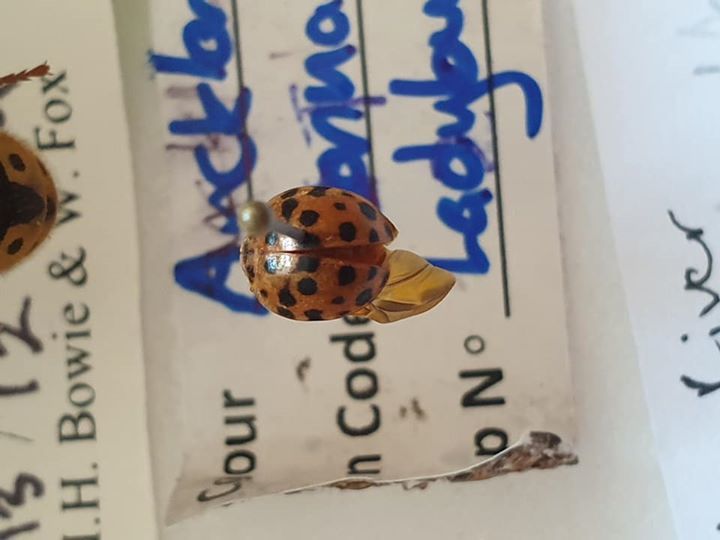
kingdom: Animalia
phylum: Arthropoda
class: Insecta
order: Coleoptera
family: Coccinellidae
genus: Henosepilachna
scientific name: Henosepilachna vigintioctopunctata
